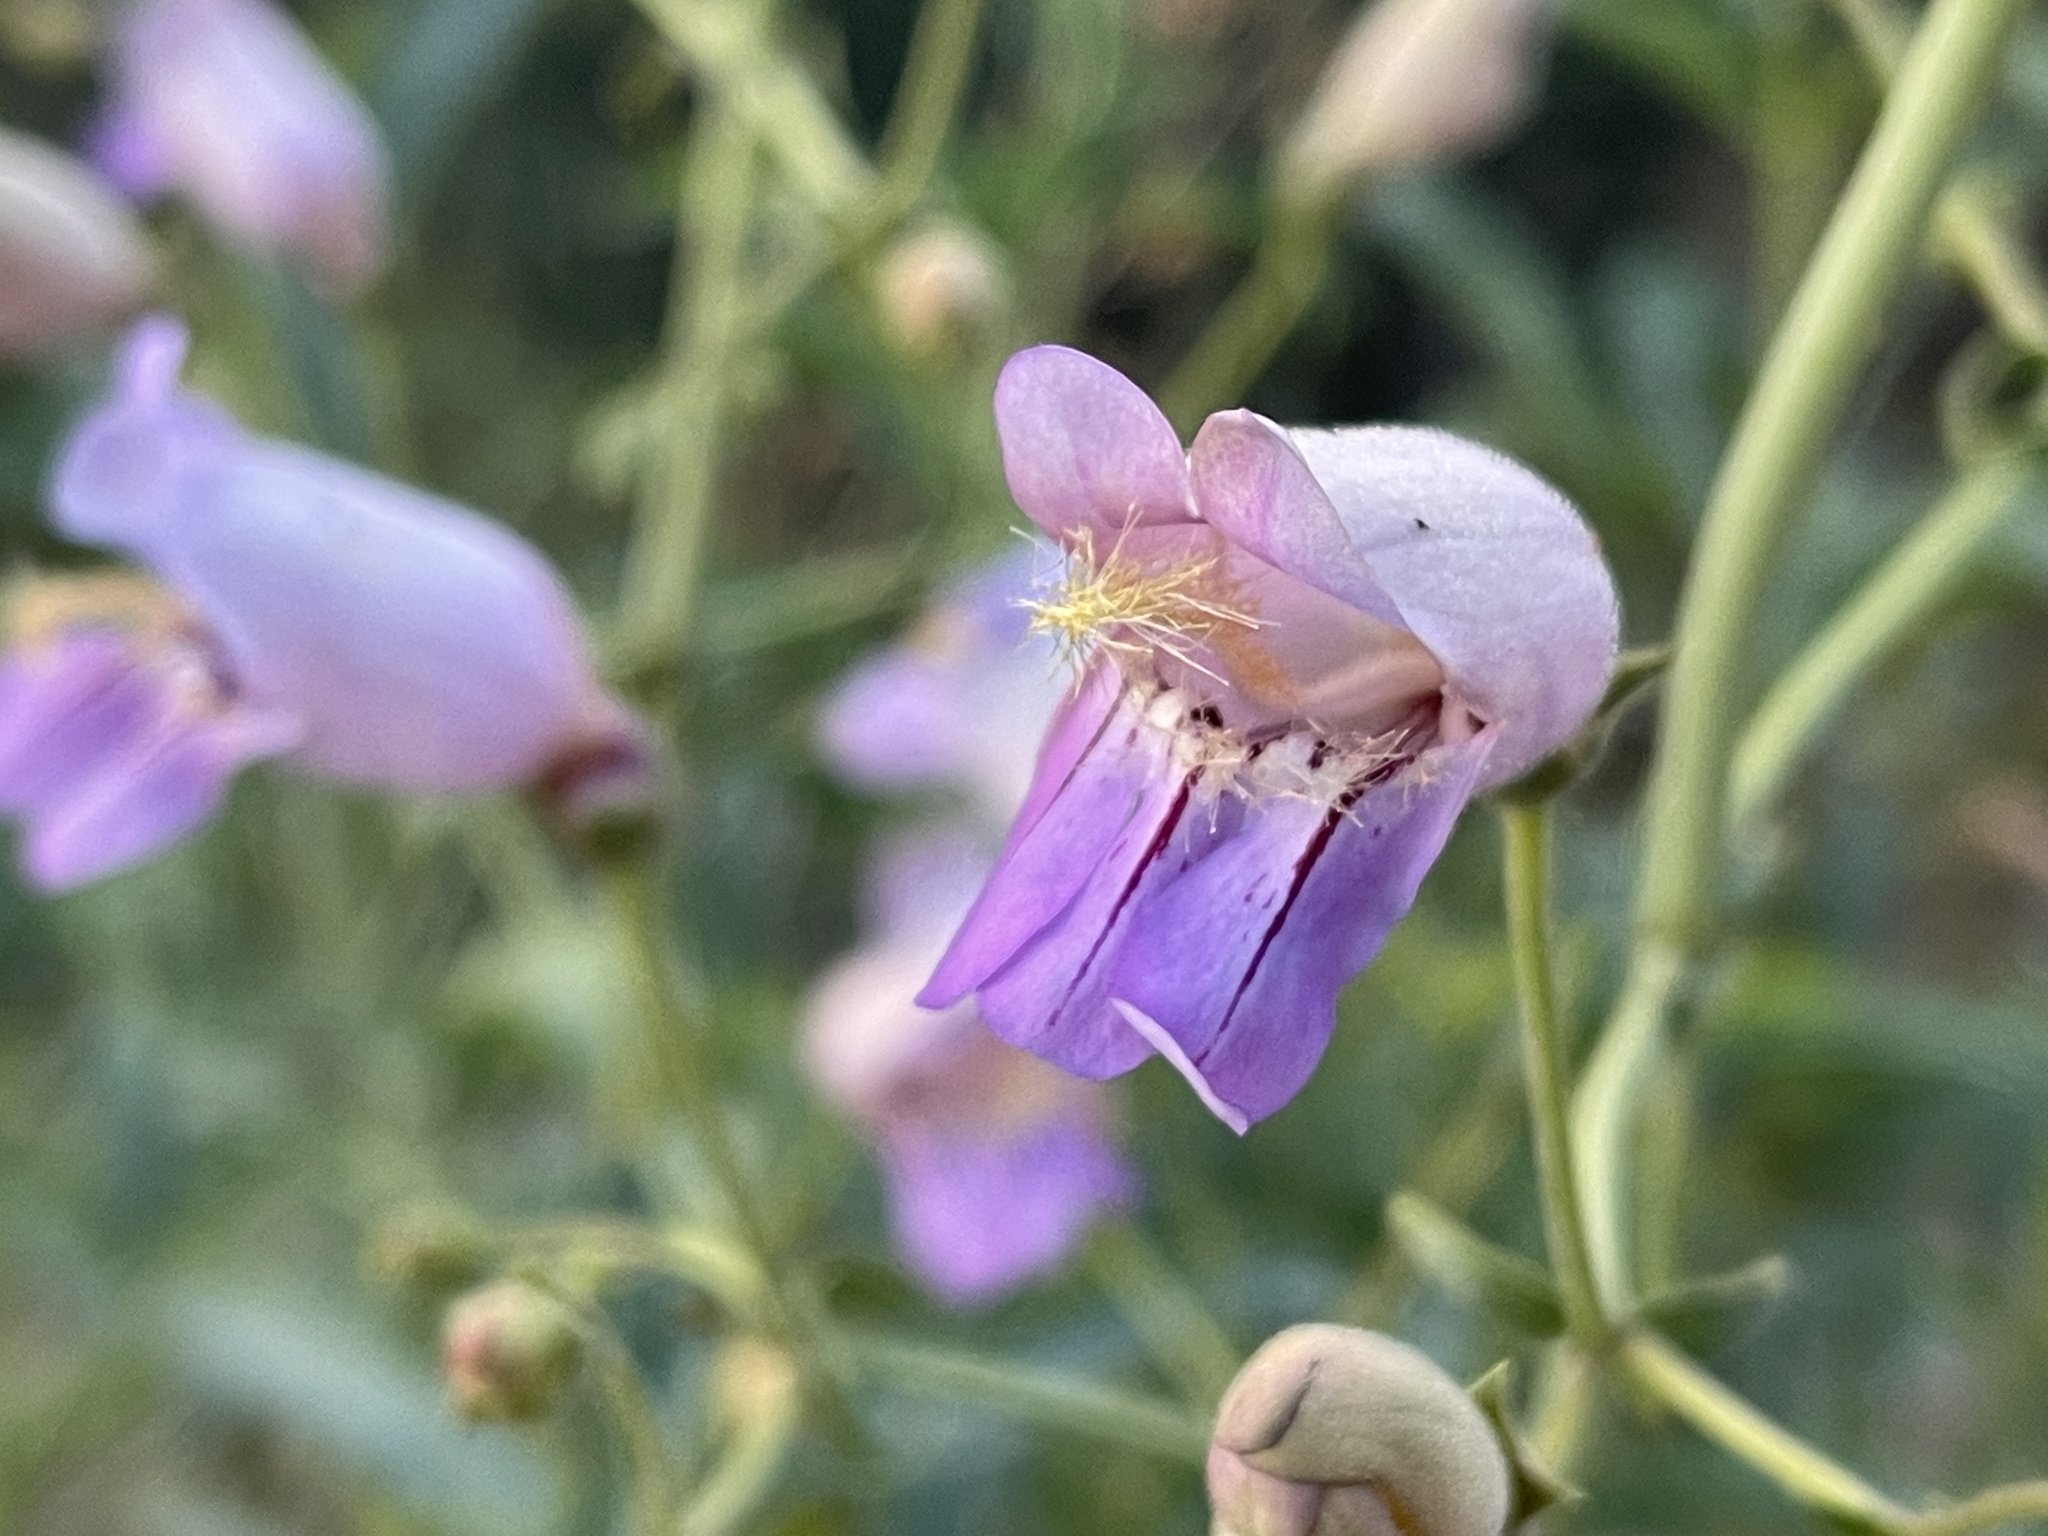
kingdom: Plantae
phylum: Tracheophyta
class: Magnoliopsida
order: Lamiales
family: Plantaginaceae
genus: Penstemon
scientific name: Penstemon grinnellii
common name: Grinnell's beardtongue
